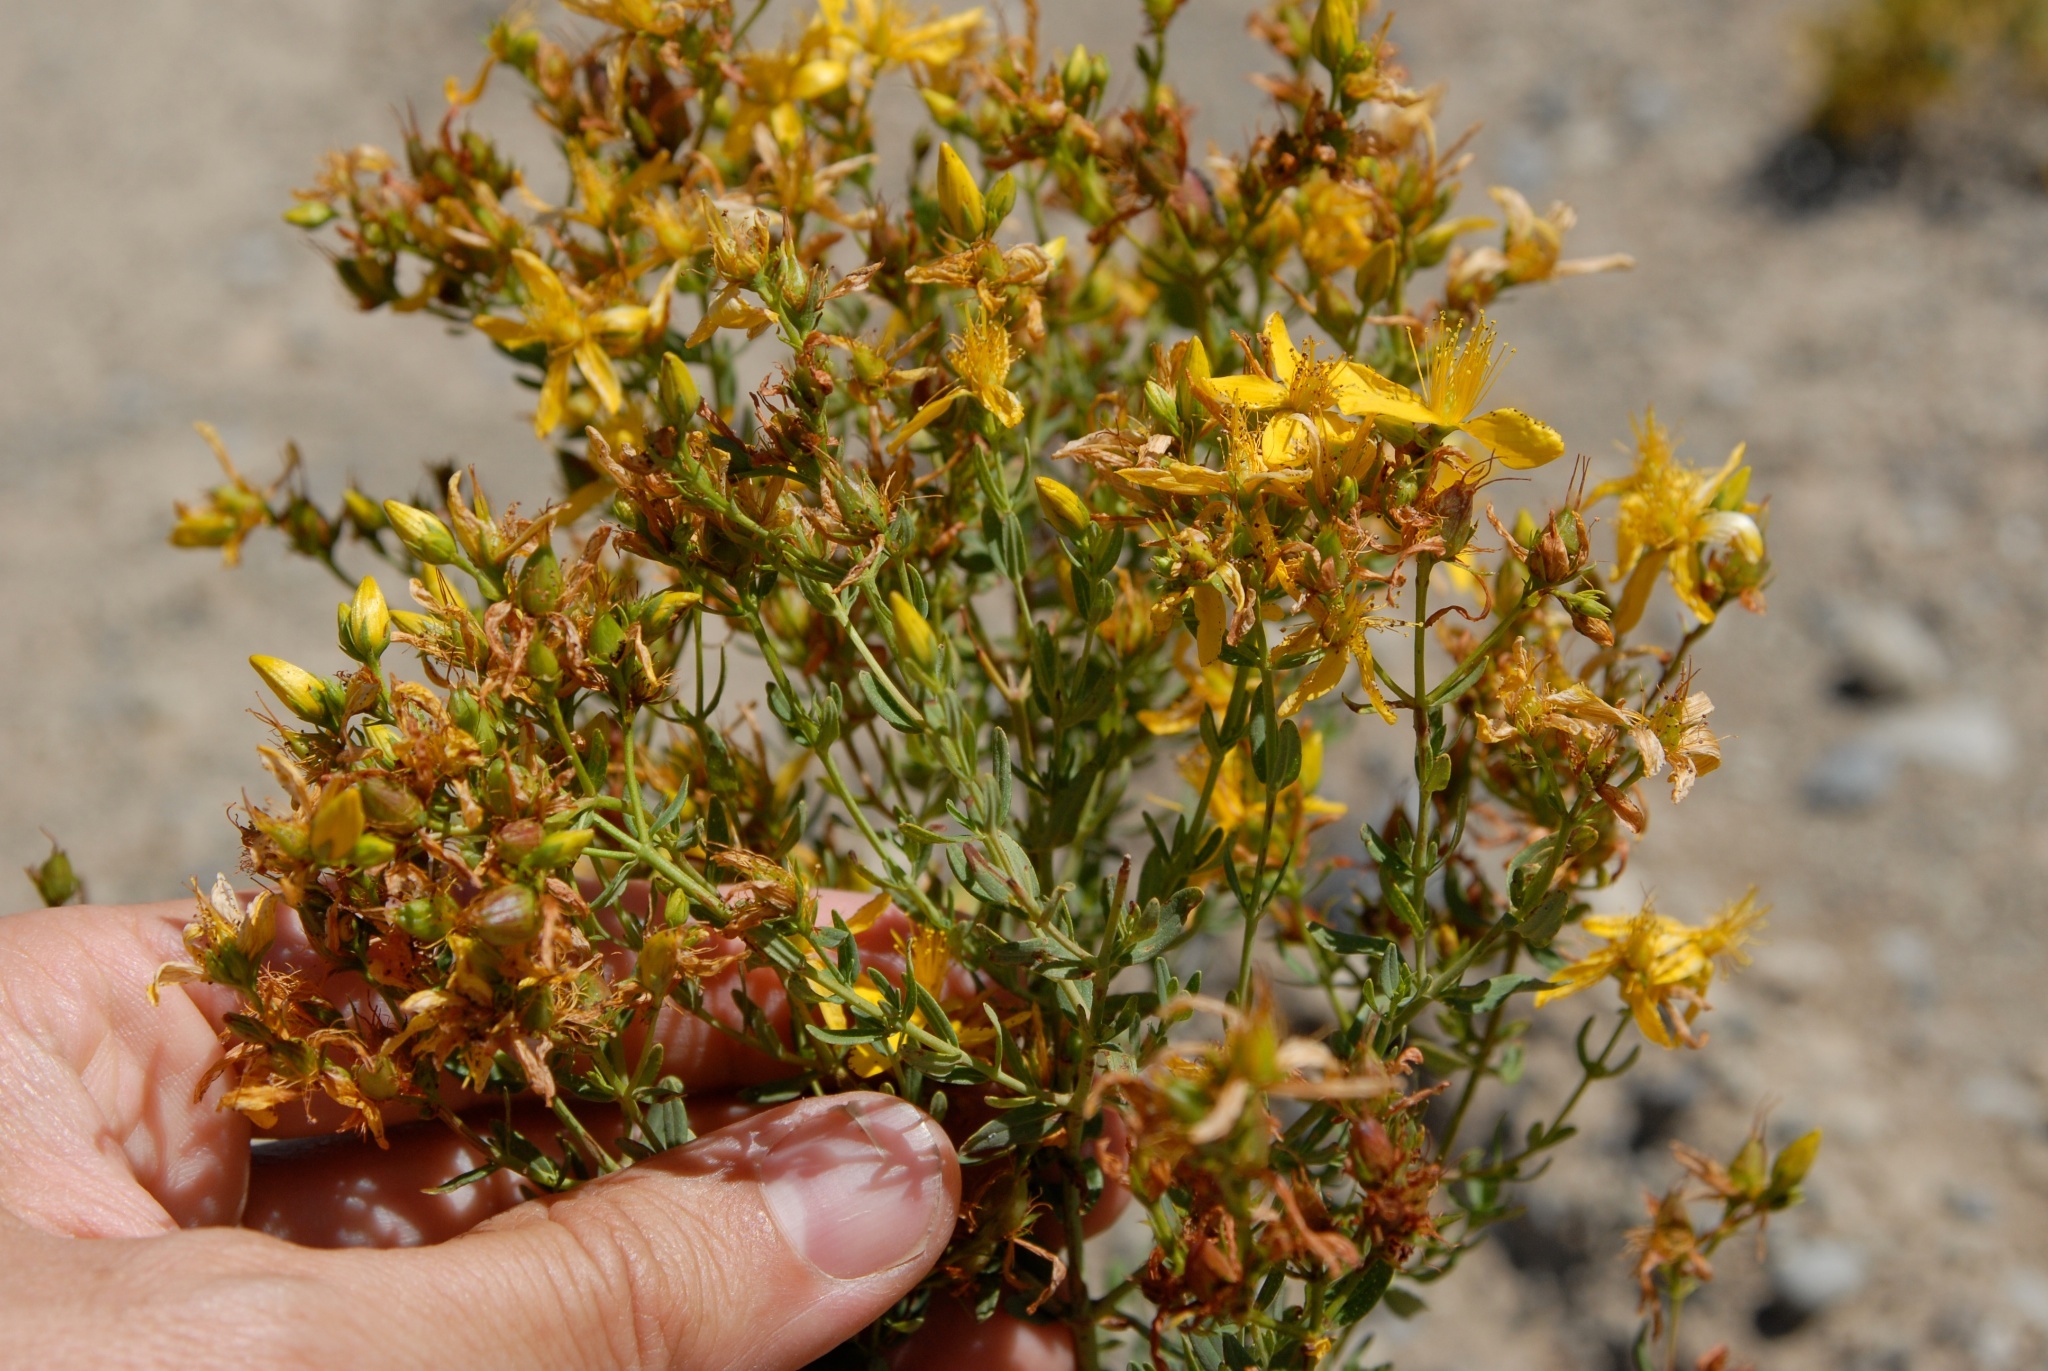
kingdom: Plantae
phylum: Tracheophyta
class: Magnoliopsida
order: Malpighiales
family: Hypericaceae
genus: Hypericum
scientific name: Hypericum perforatum
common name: Common st. johnswort
